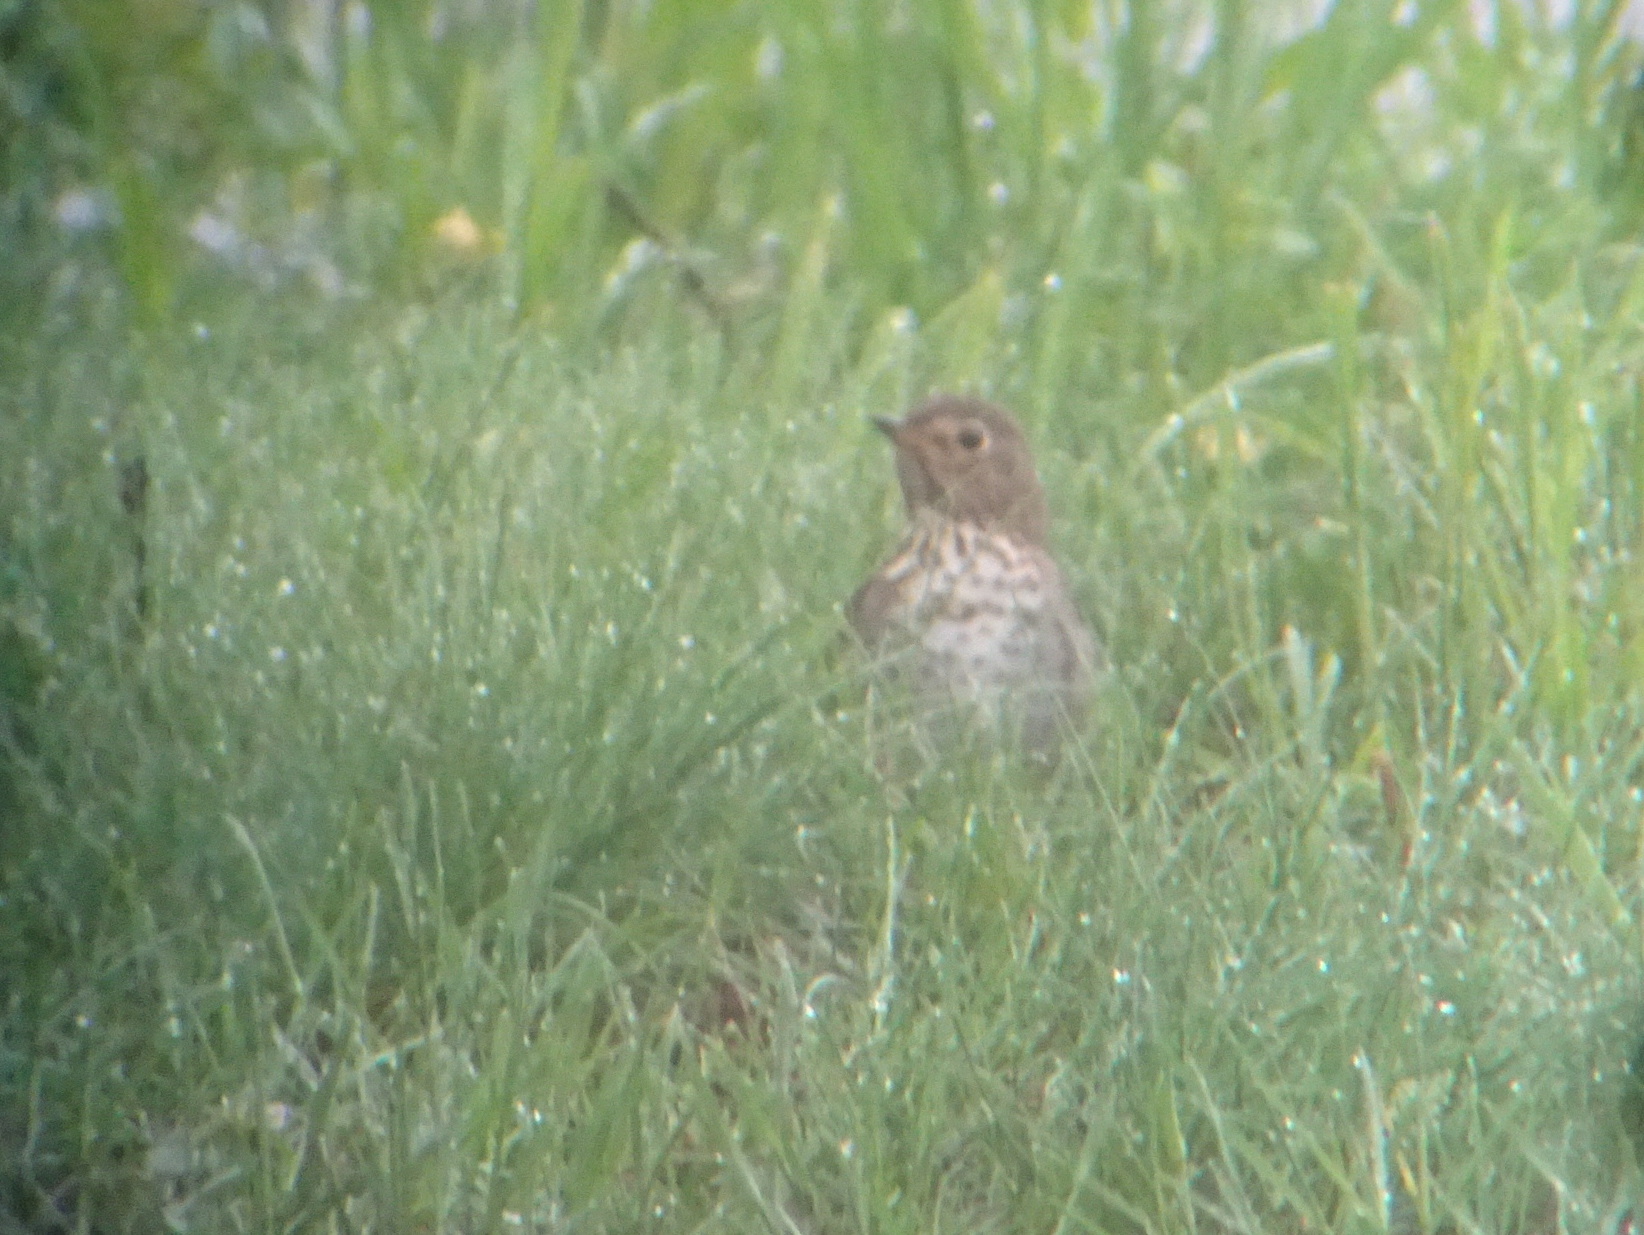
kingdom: Animalia
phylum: Chordata
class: Aves
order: Passeriformes
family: Turdidae
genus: Catharus
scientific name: Catharus ustulatus
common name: Swainson's thrush
